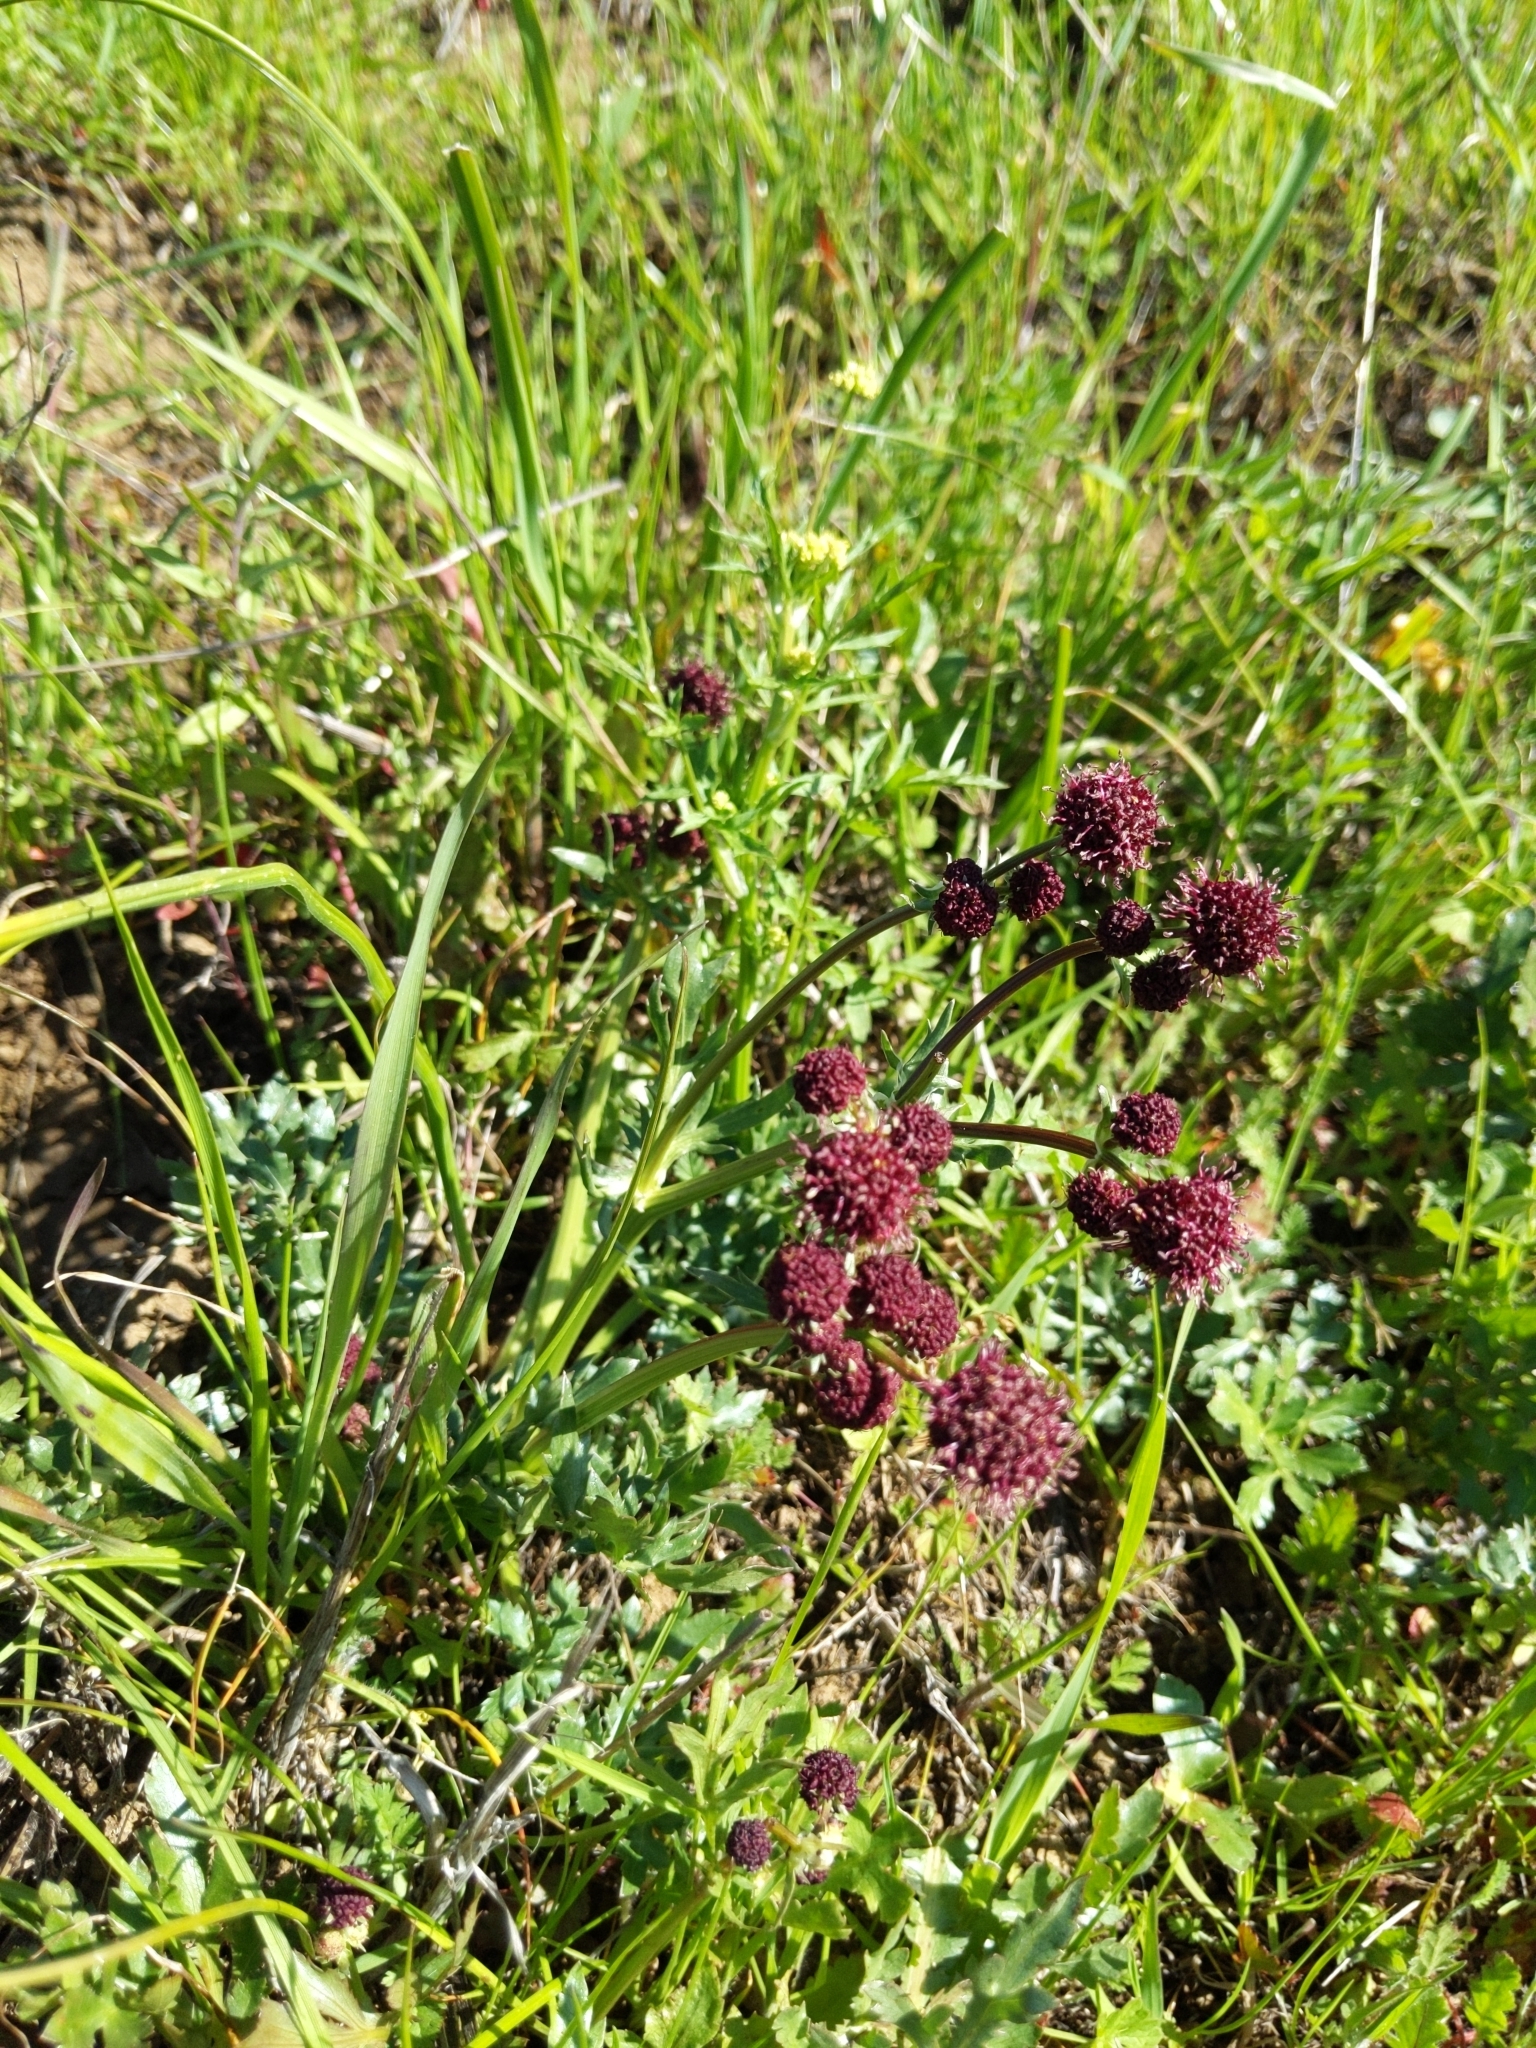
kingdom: Plantae
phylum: Tracheophyta
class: Magnoliopsida
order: Apiales
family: Apiaceae
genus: Sanicula
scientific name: Sanicula bipinnatifida
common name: Shoe-buttons
